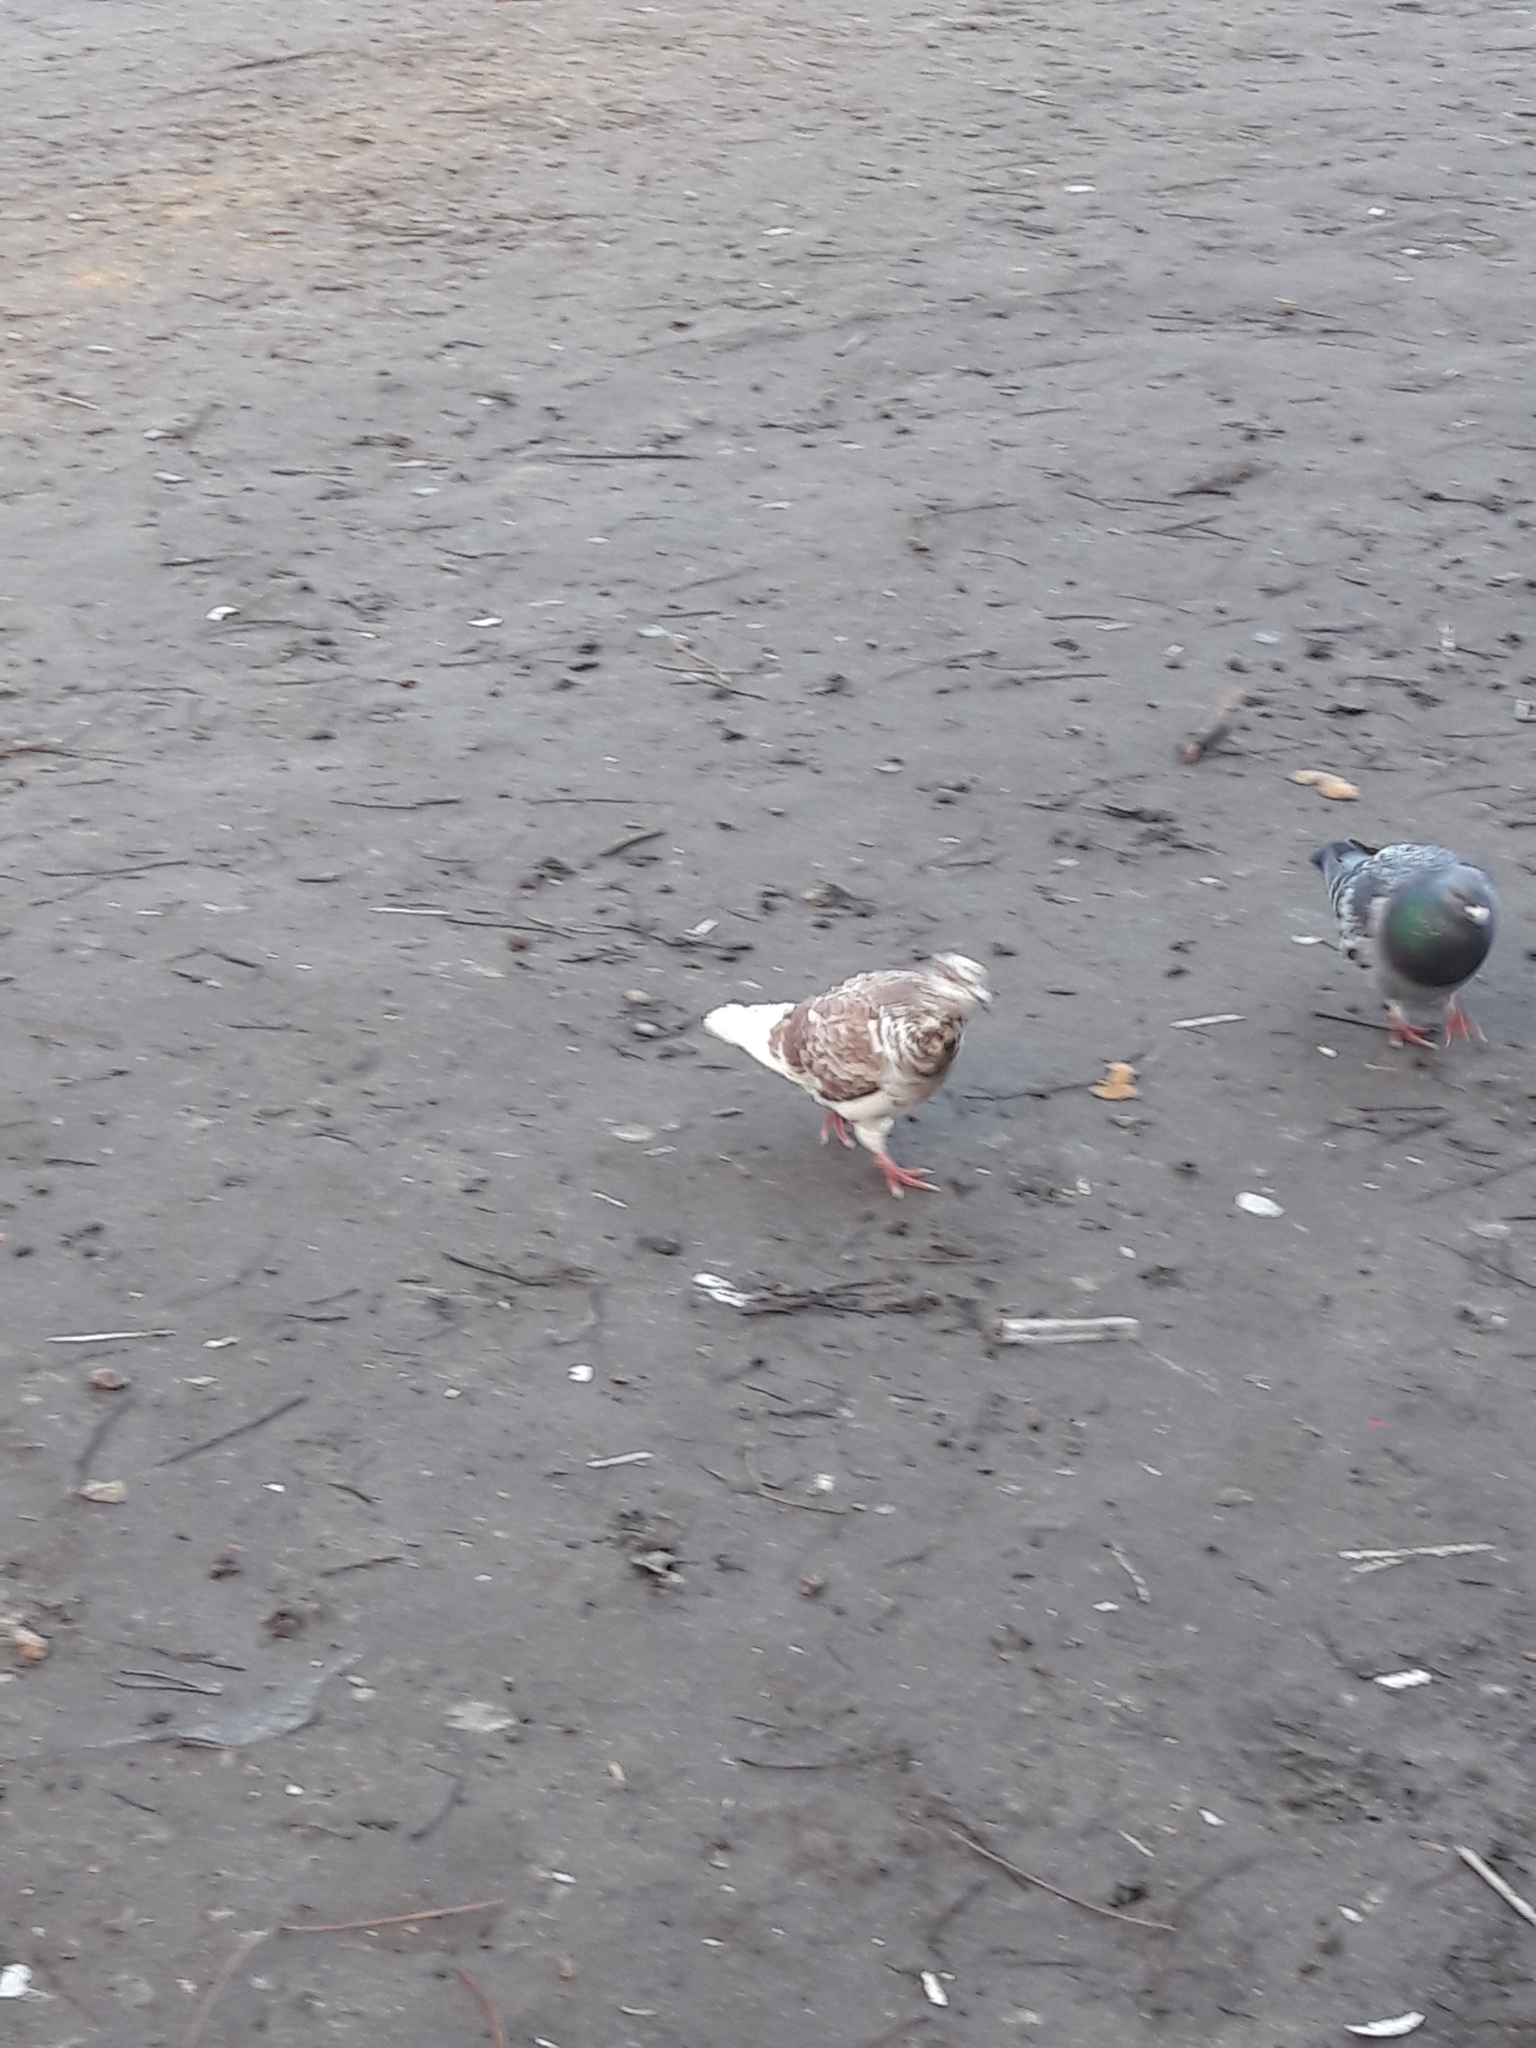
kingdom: Animalia
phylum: Chordata
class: Aves
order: Columbiformes
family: Columbidae
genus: Columba
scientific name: Columba livia
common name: Rock pigeon
